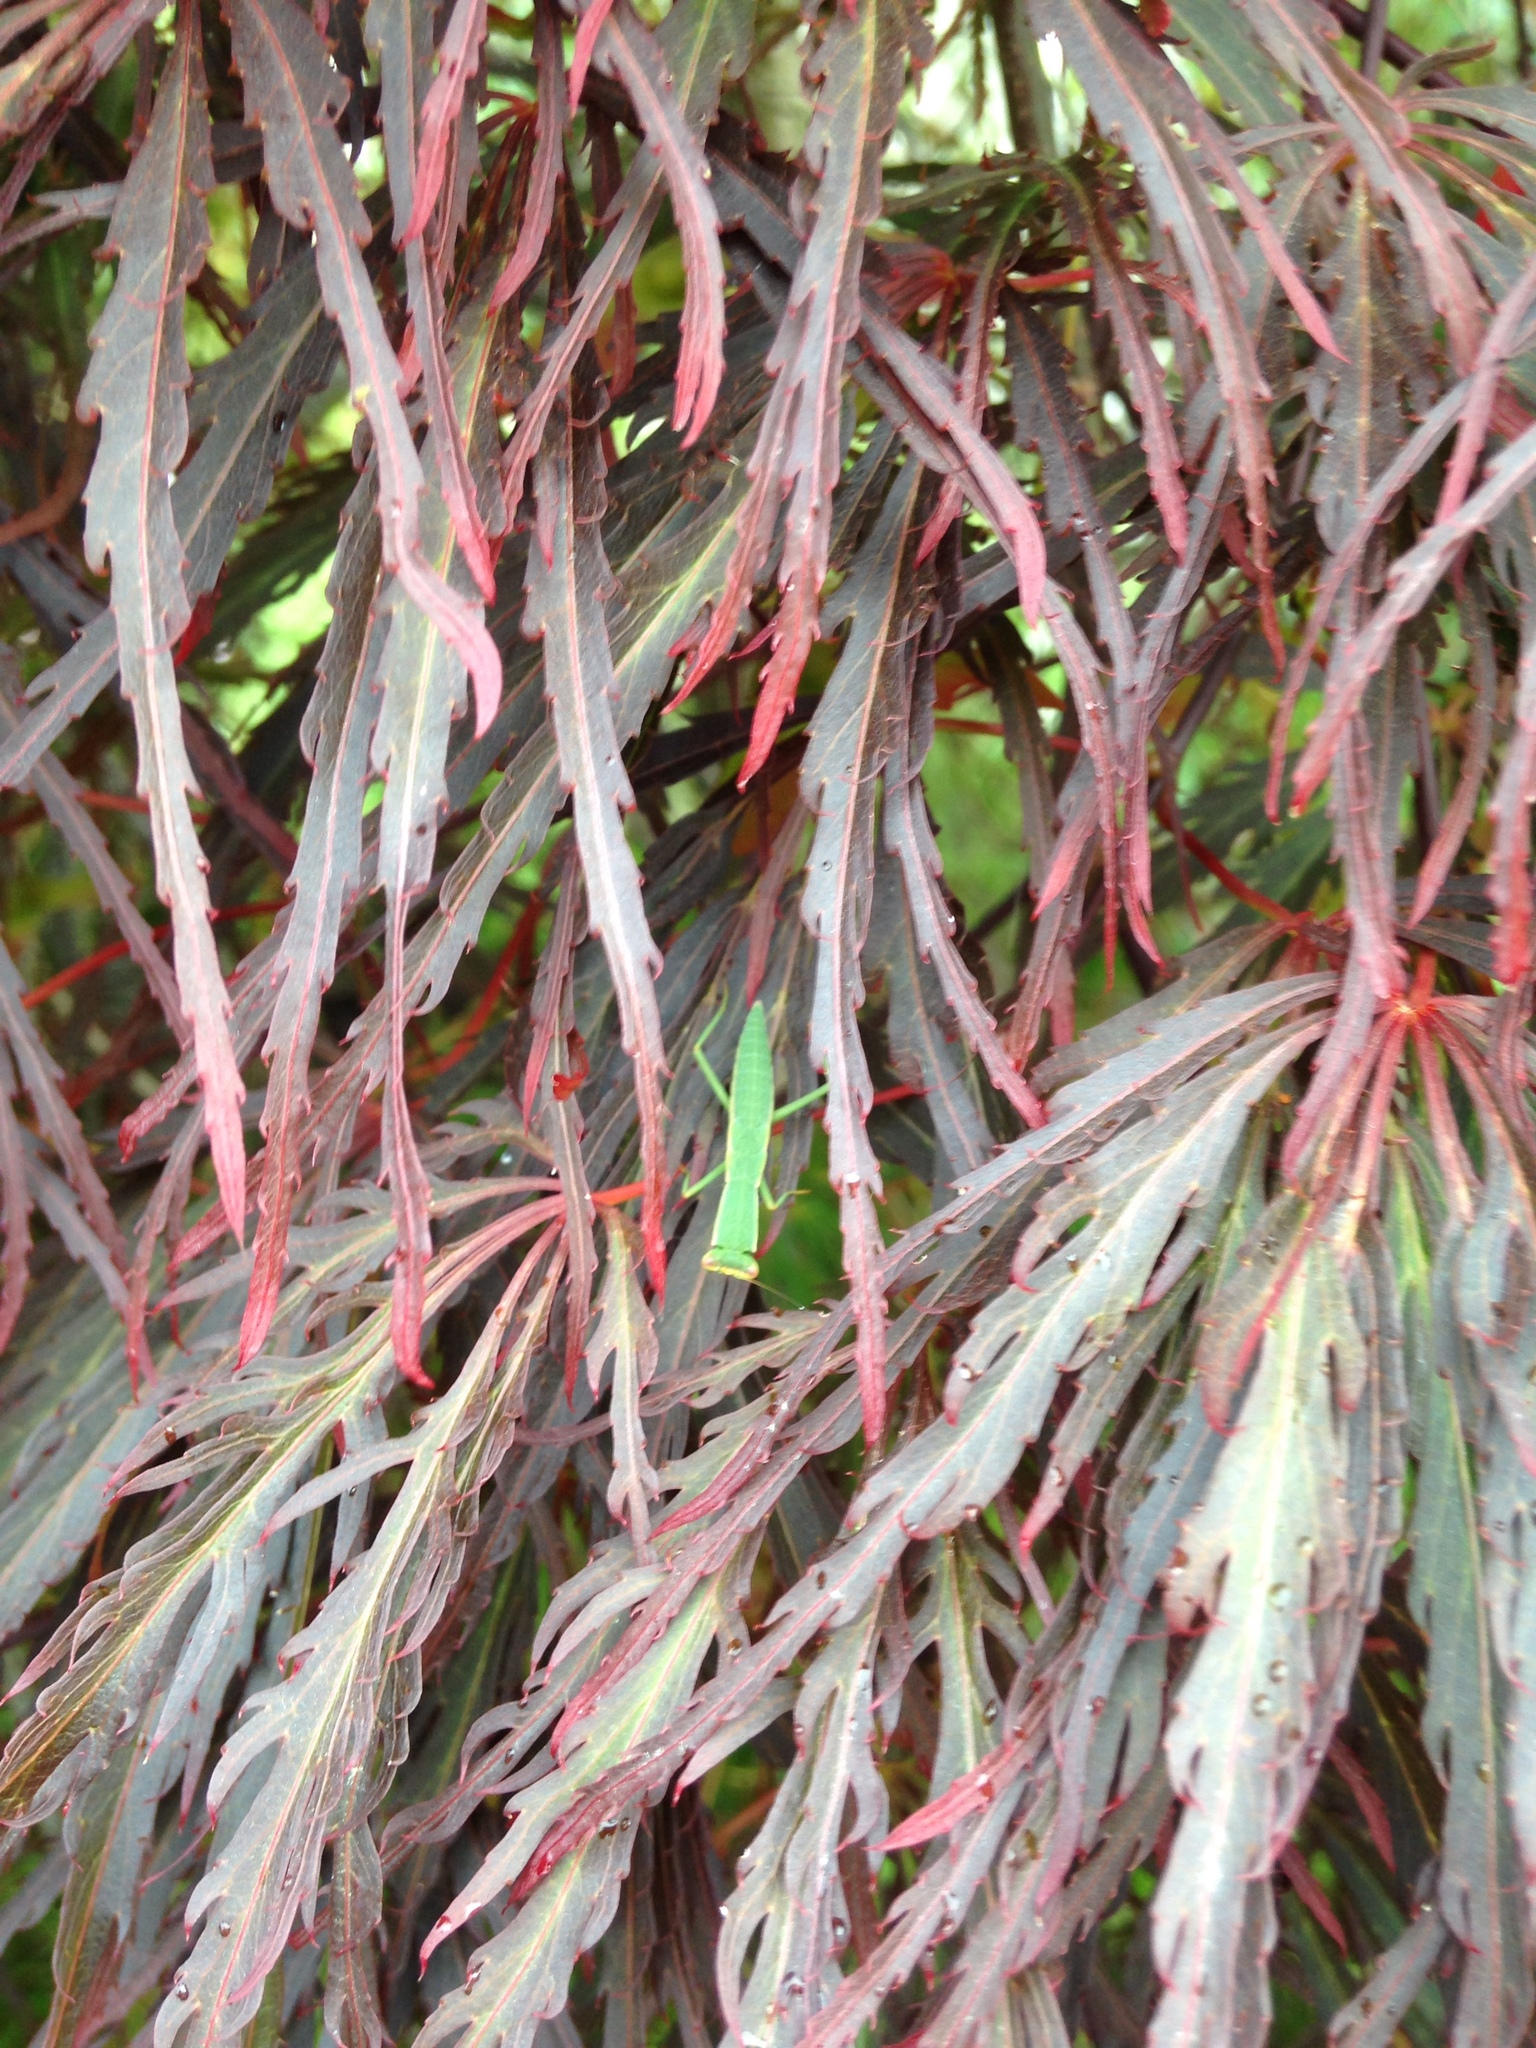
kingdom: Animalia
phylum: Arthropoda
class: Insecta
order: Mantodea
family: Mantidae
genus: Orthodera
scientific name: Orthodera novaezealandiae
